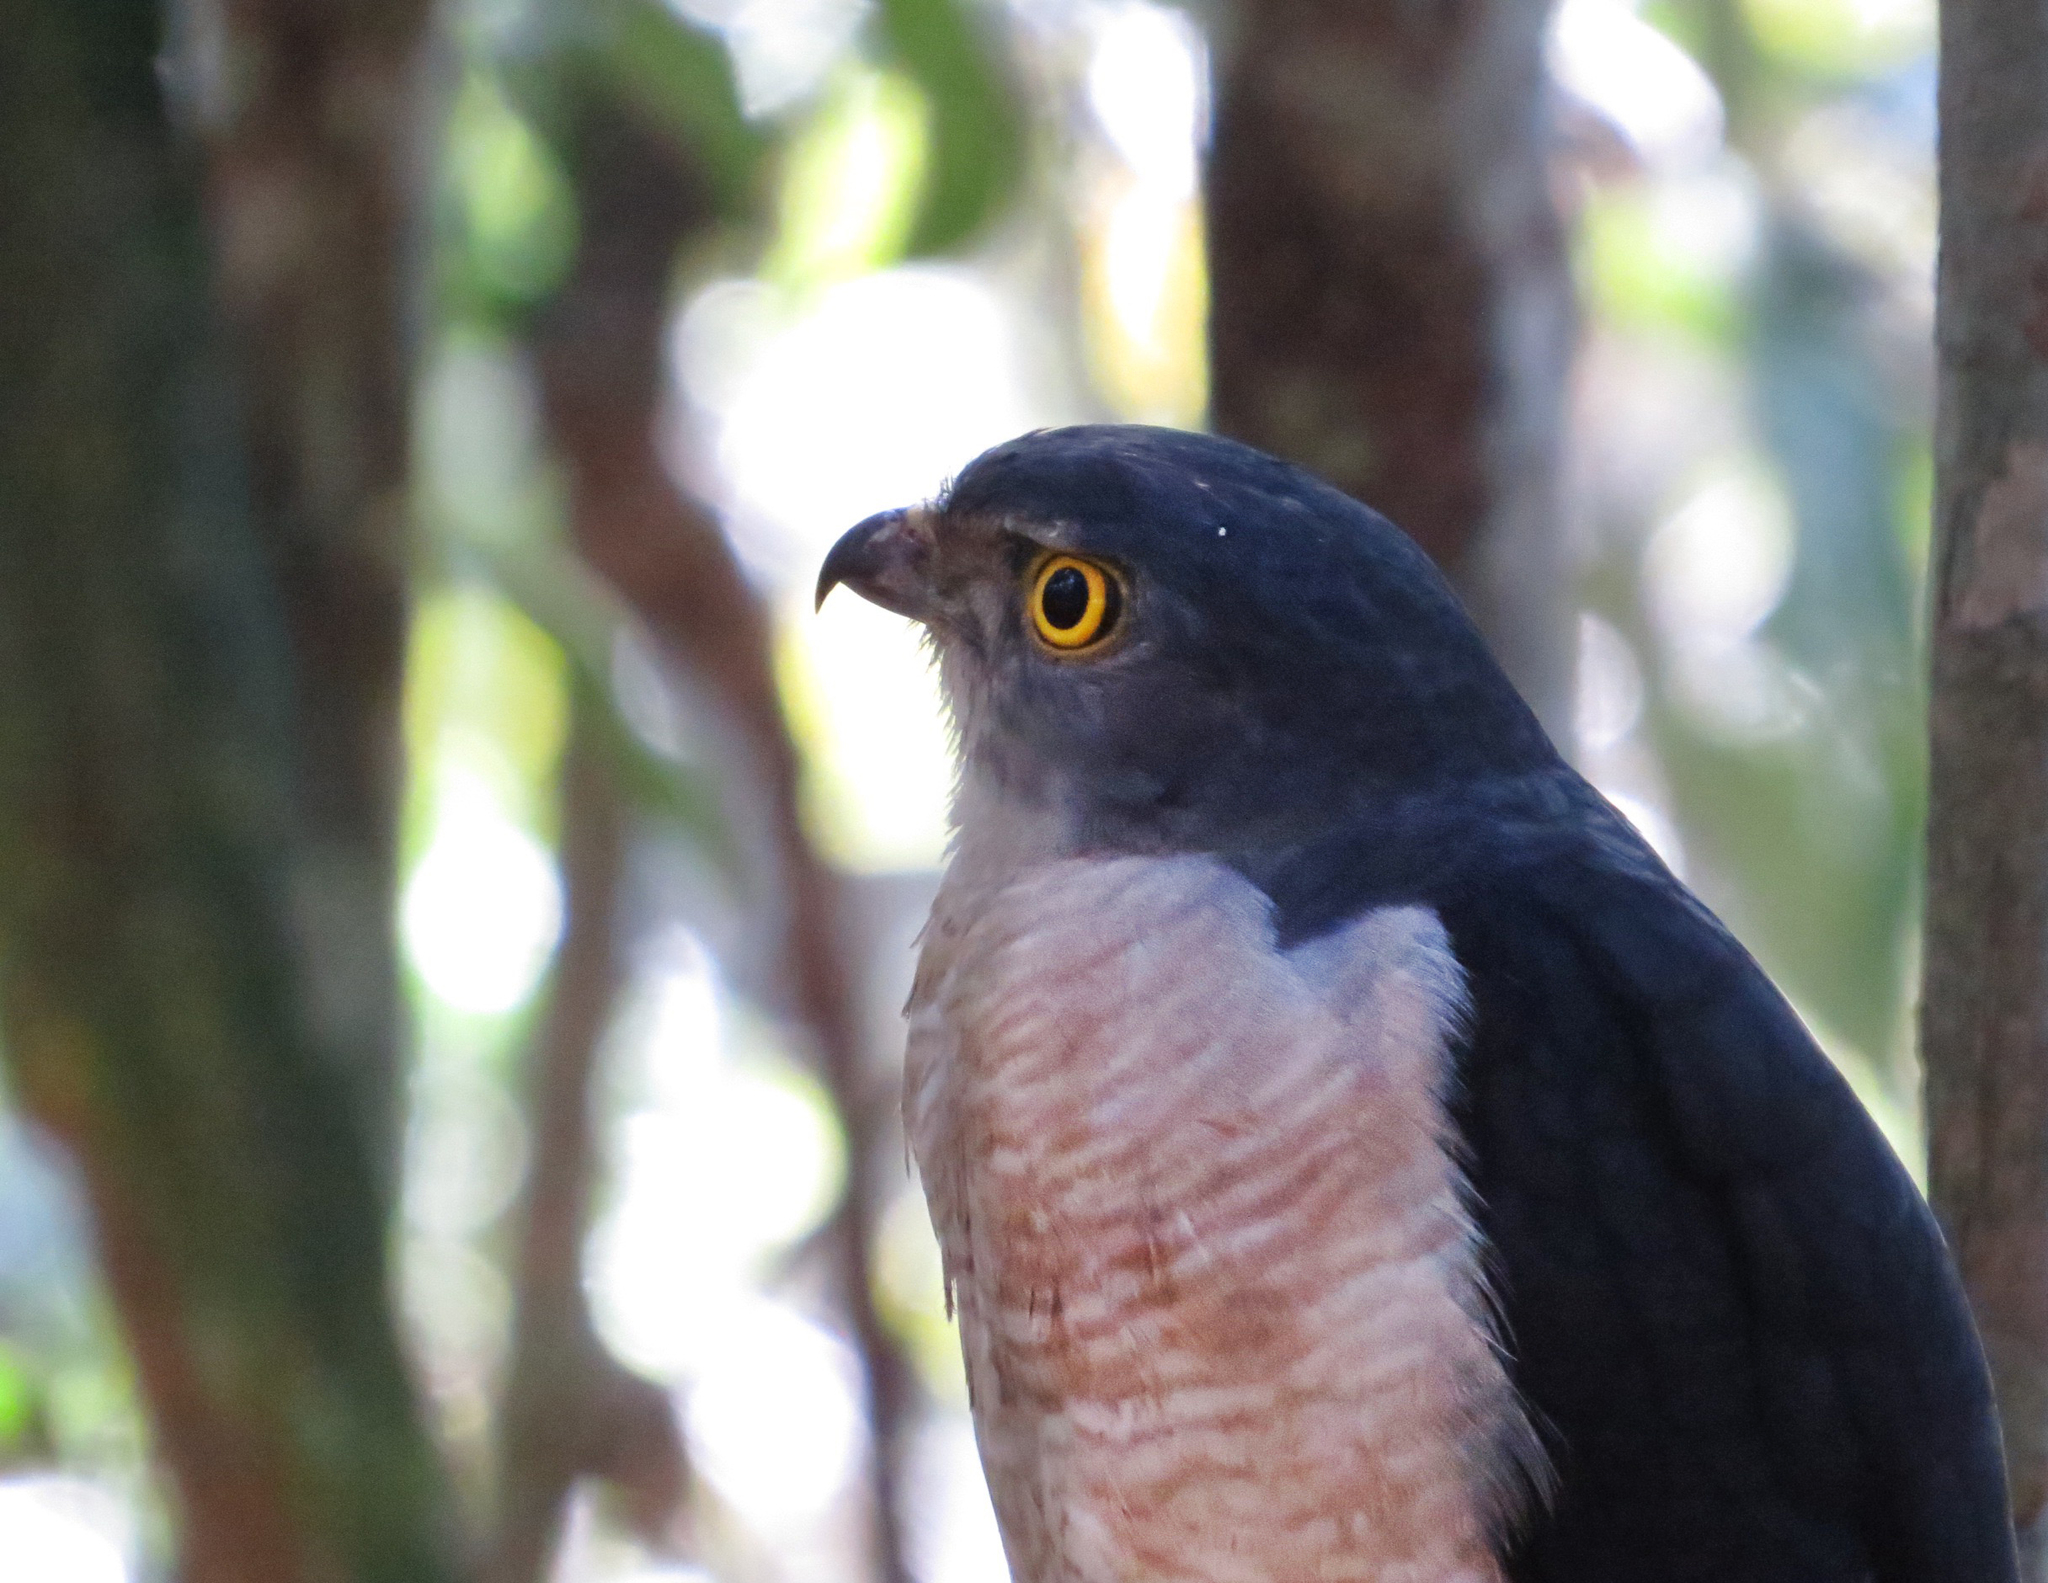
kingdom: Animalia
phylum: Chordata
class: Aves
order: Accipitriformes
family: Accipitridae
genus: Accipiter
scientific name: Accipiter francesiae
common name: Frances's sparrowhawk
